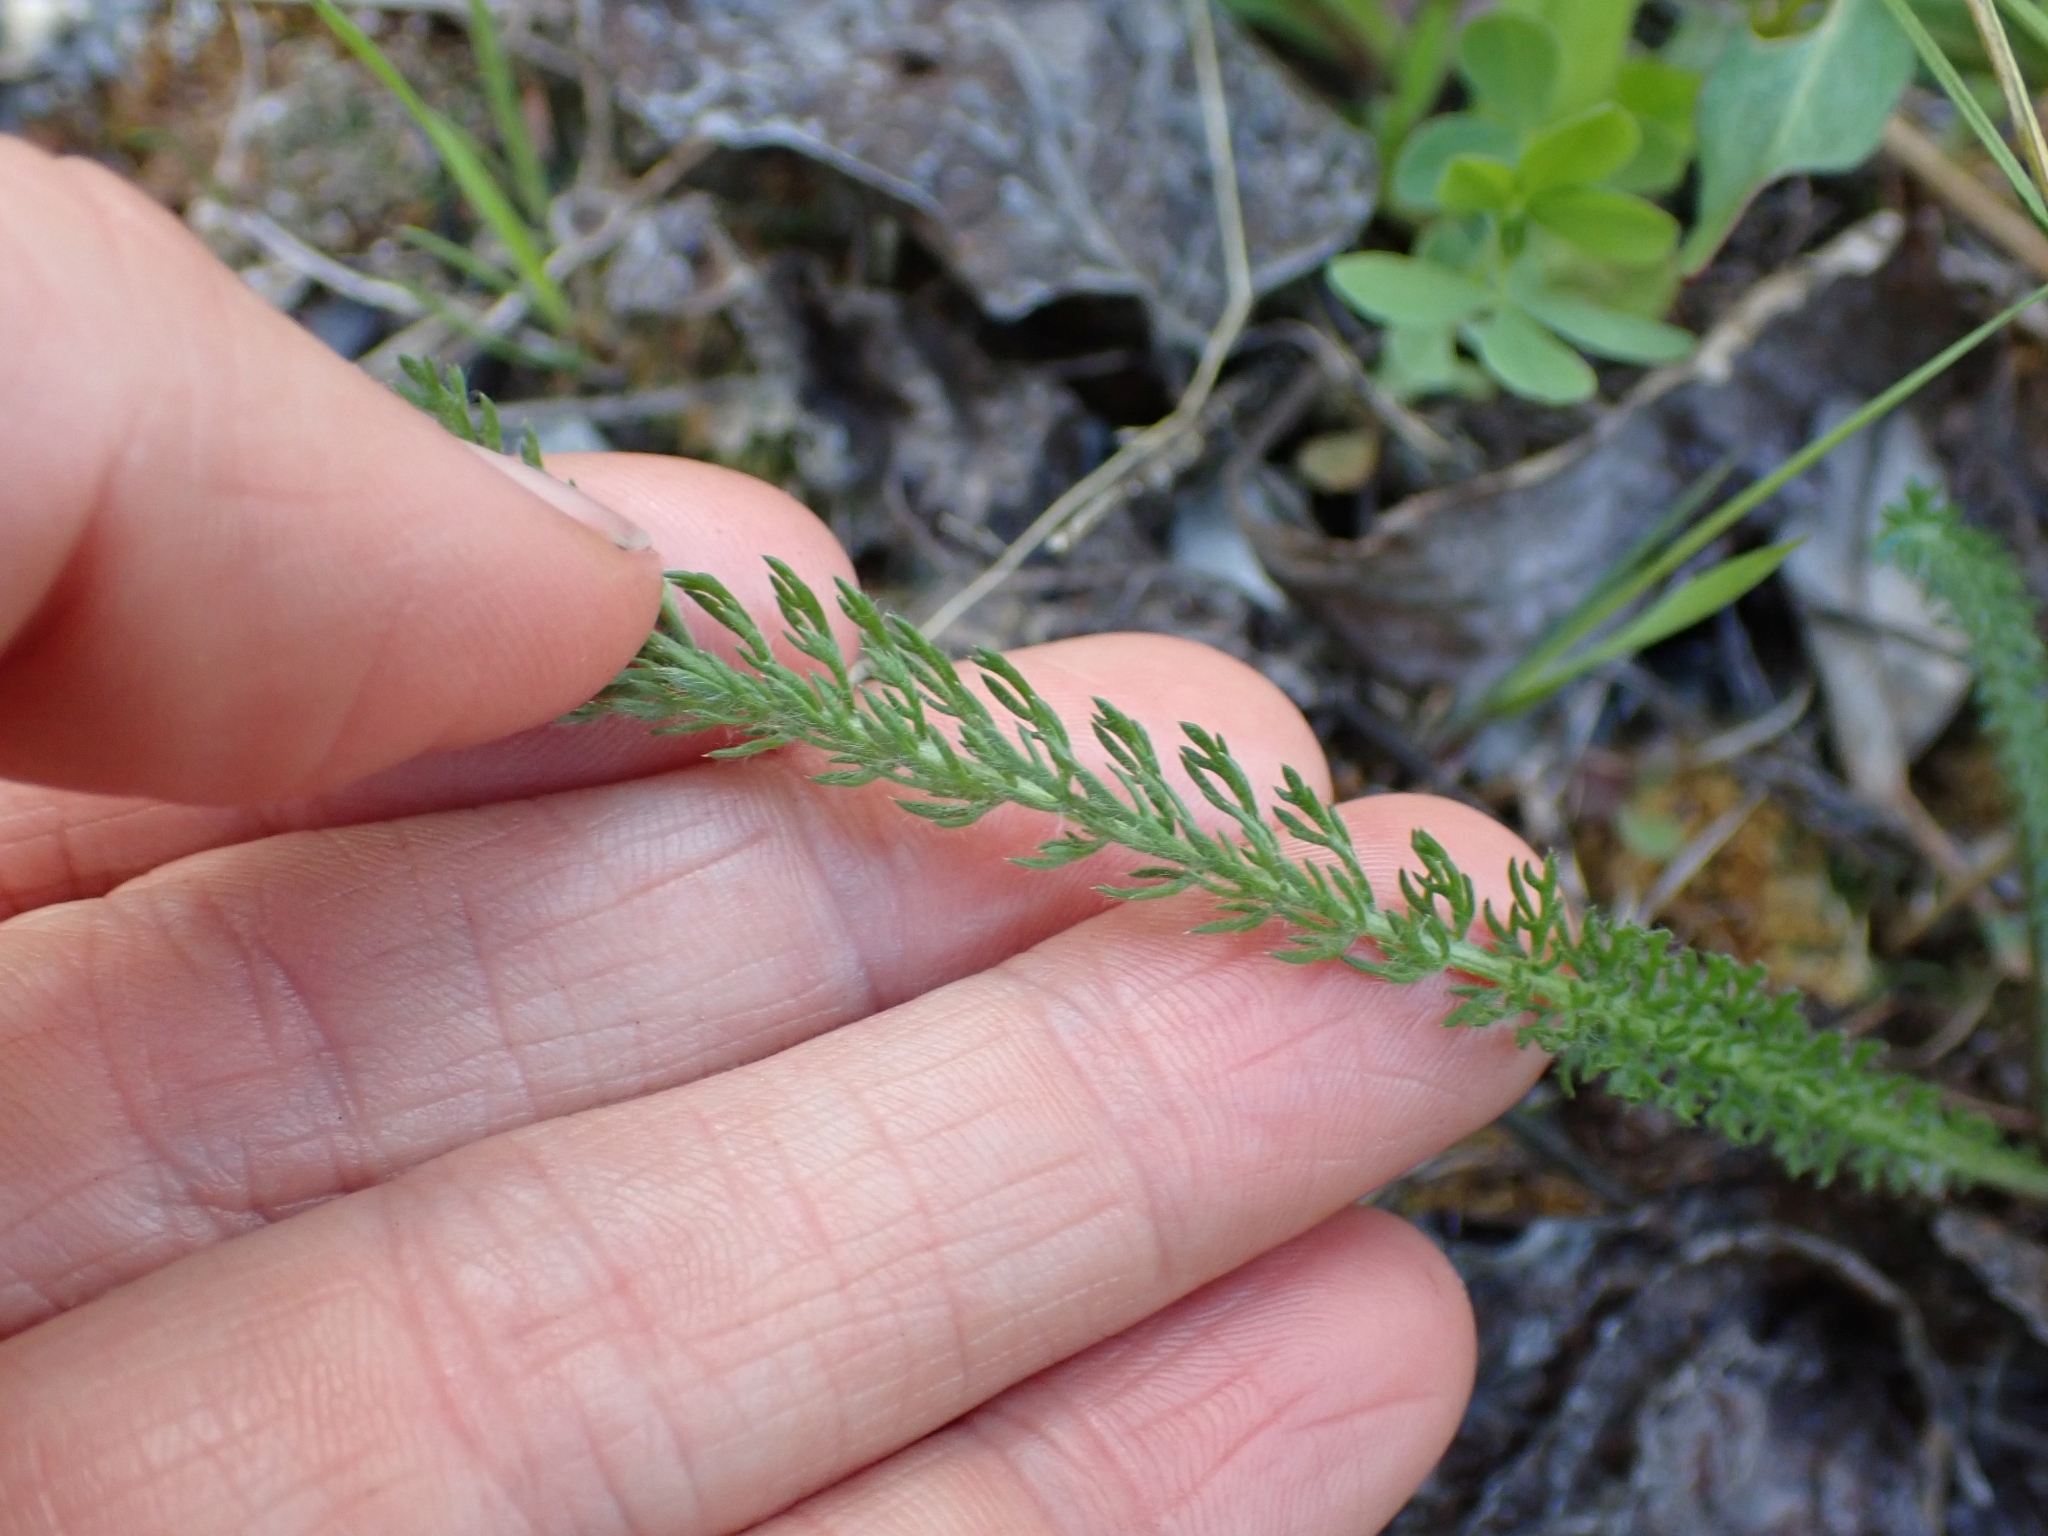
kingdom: Plantae
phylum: Tracheophyta
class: Magnoliopsida
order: Asterales
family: Asteraceae
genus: Achillea
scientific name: Achillea millefolium
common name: Yarrow
